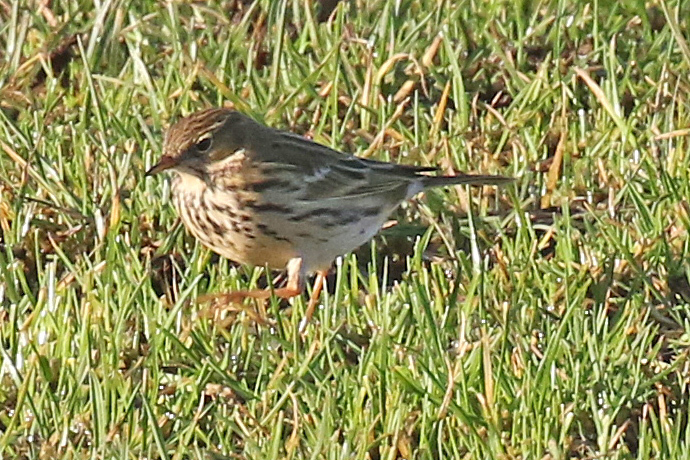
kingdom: Animalia
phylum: Chordata
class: Aves
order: Passeriformes
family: Motacillidae
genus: Anthus
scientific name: Anthus pratensis
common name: Meadow pipit
